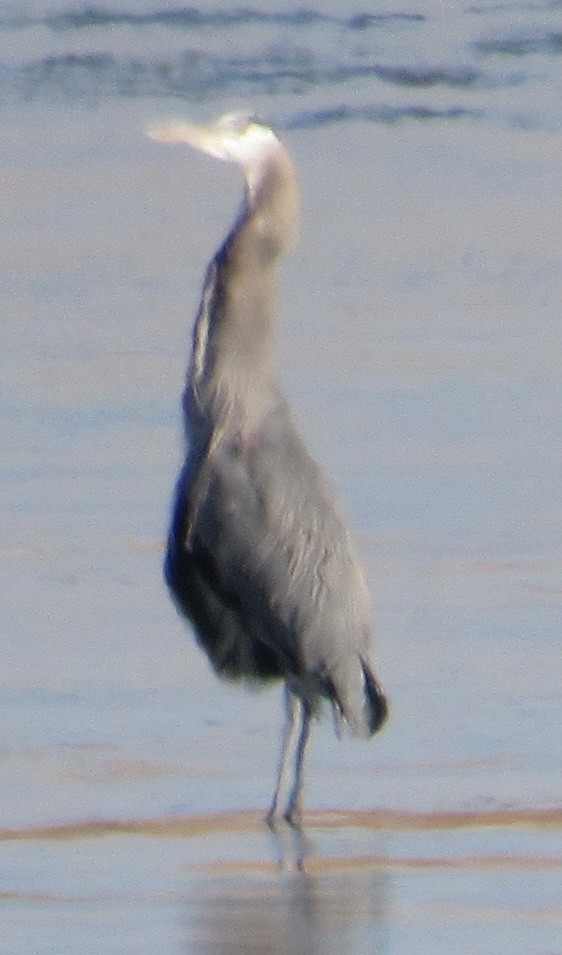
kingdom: Animalia
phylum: Chordata
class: Aves
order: Pelecaniformes
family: Ardeidae
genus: Ardea
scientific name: Ardea herodias
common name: Great blue heron
